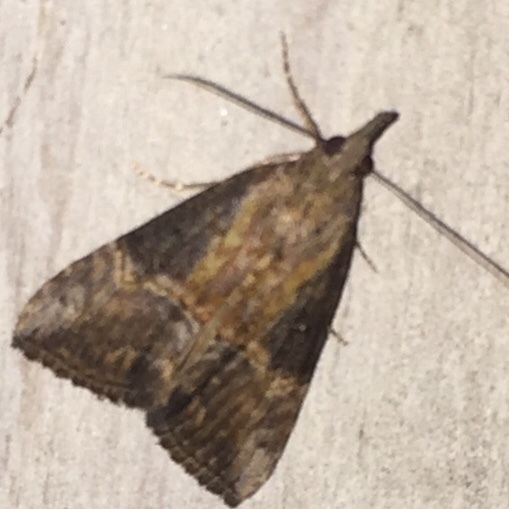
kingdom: Animalia
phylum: Arthropoda
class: Insecta
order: Lepidoptera
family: Erebidae
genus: Hypena
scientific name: Hypena scabra
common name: Green cloverworm
